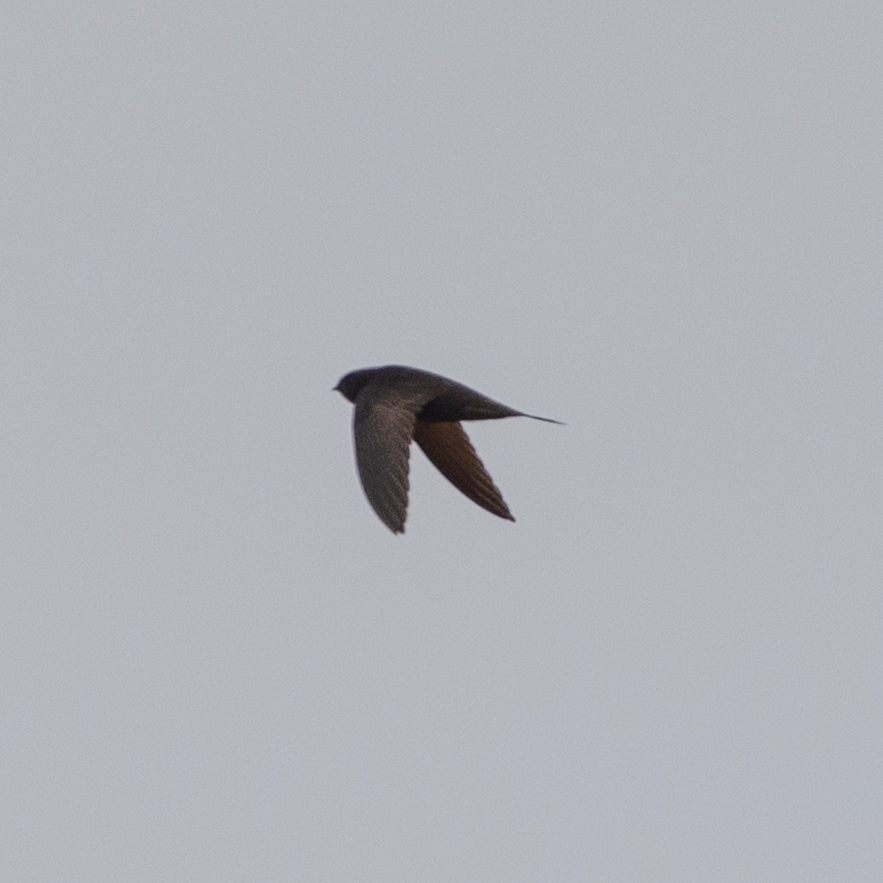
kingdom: Animalia
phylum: Chordata
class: Aves
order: Apodiformes
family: Apodidae
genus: Apus
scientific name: Apus apus
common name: Common swift
